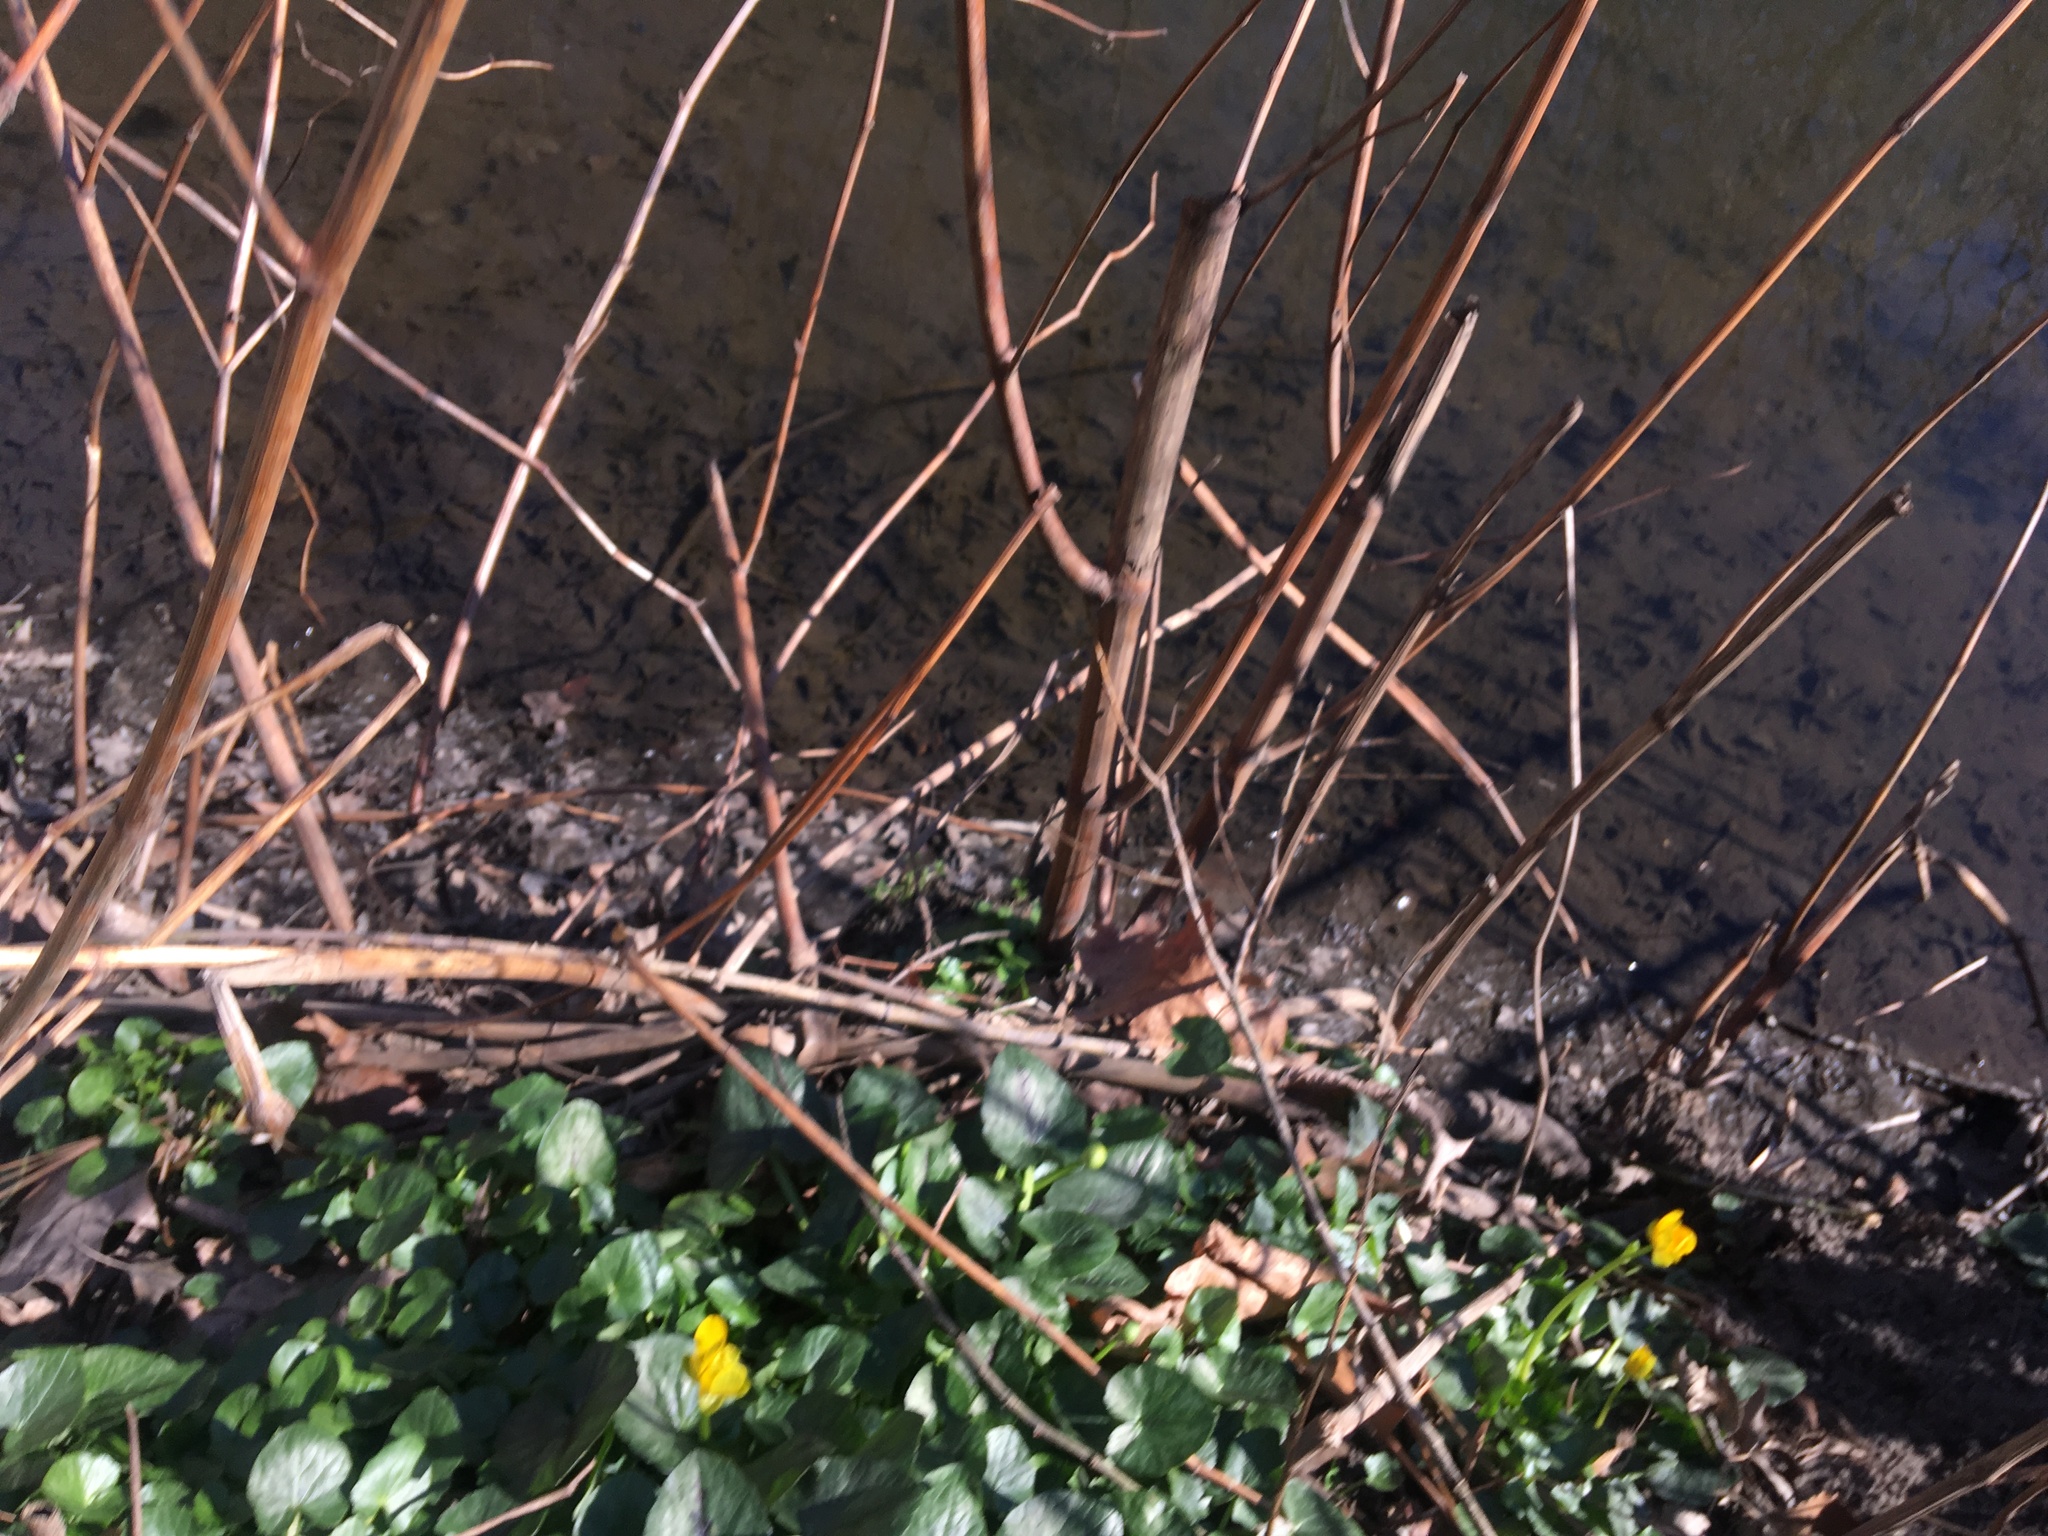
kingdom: Plantae
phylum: Tracheophyta
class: Magnoliopsida
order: Ranunculales
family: Ranunculaceae
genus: Ficaria
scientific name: Ficaria verna
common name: Lesser celandine
